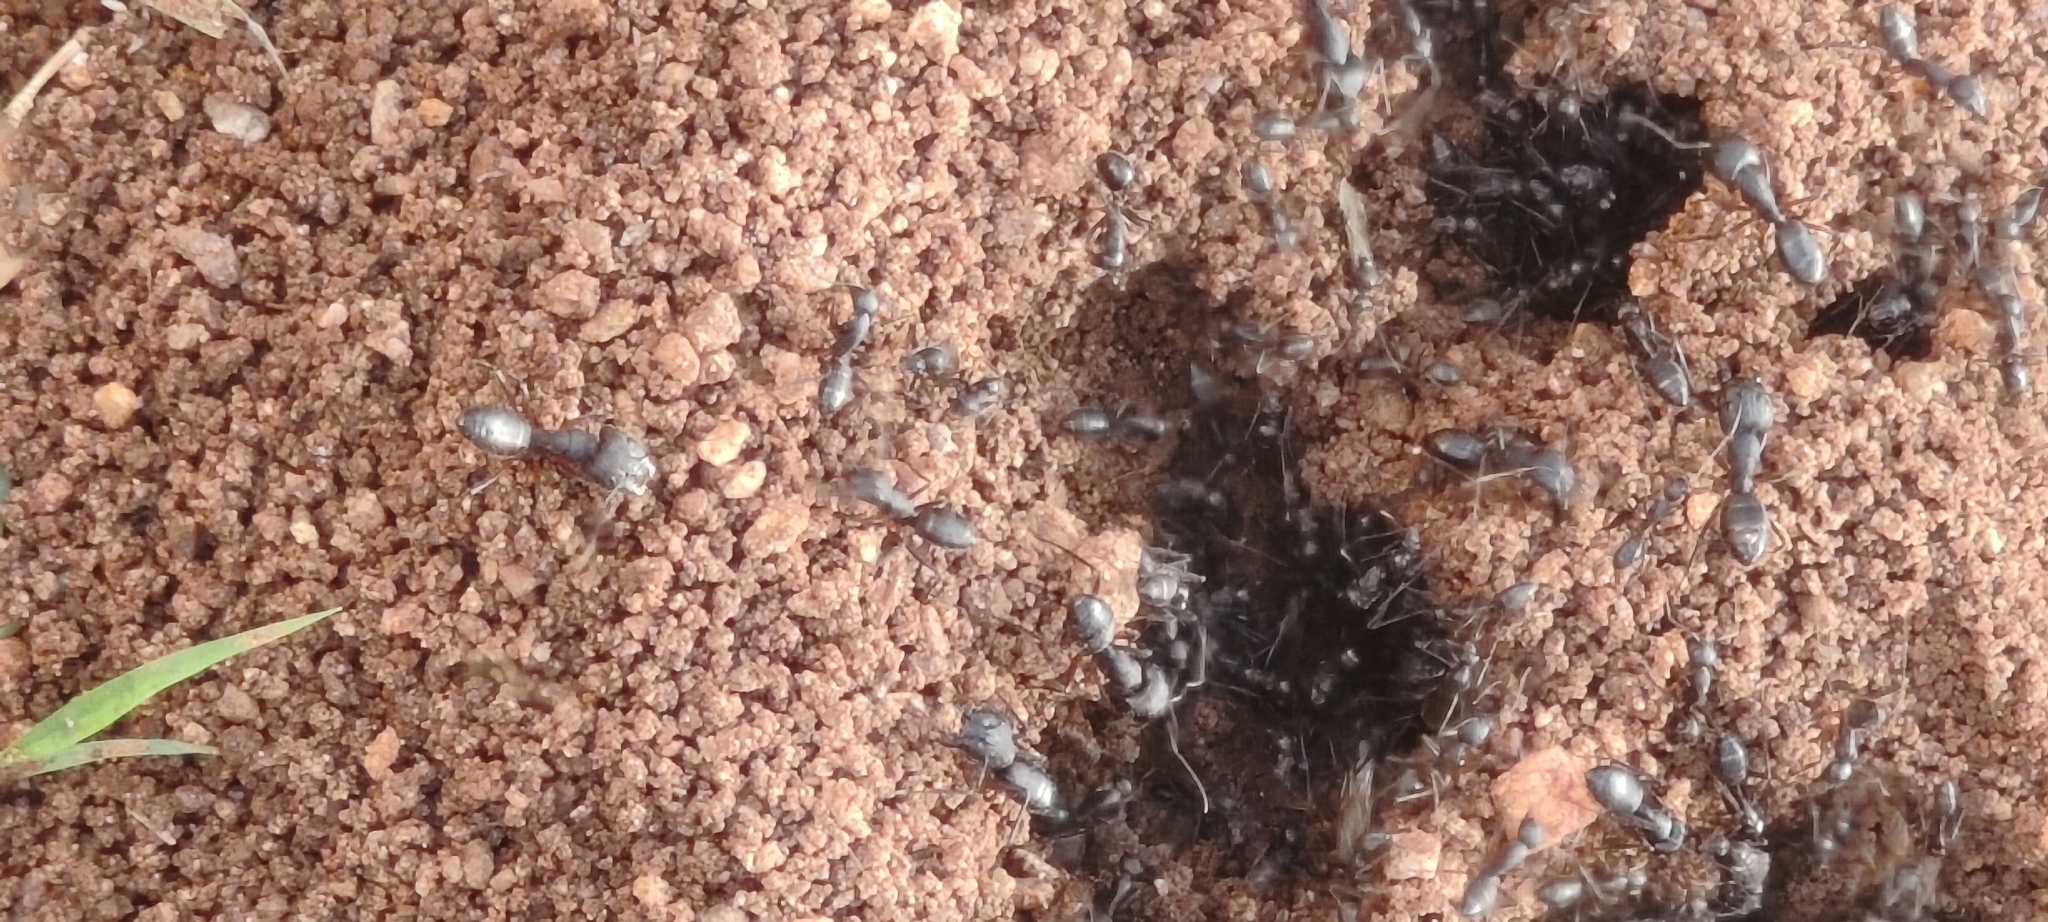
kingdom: Animalia
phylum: Arthropoda
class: Insecta
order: Hymenoptera
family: Formicidae
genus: Camponotus
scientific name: Camponotus compressus
